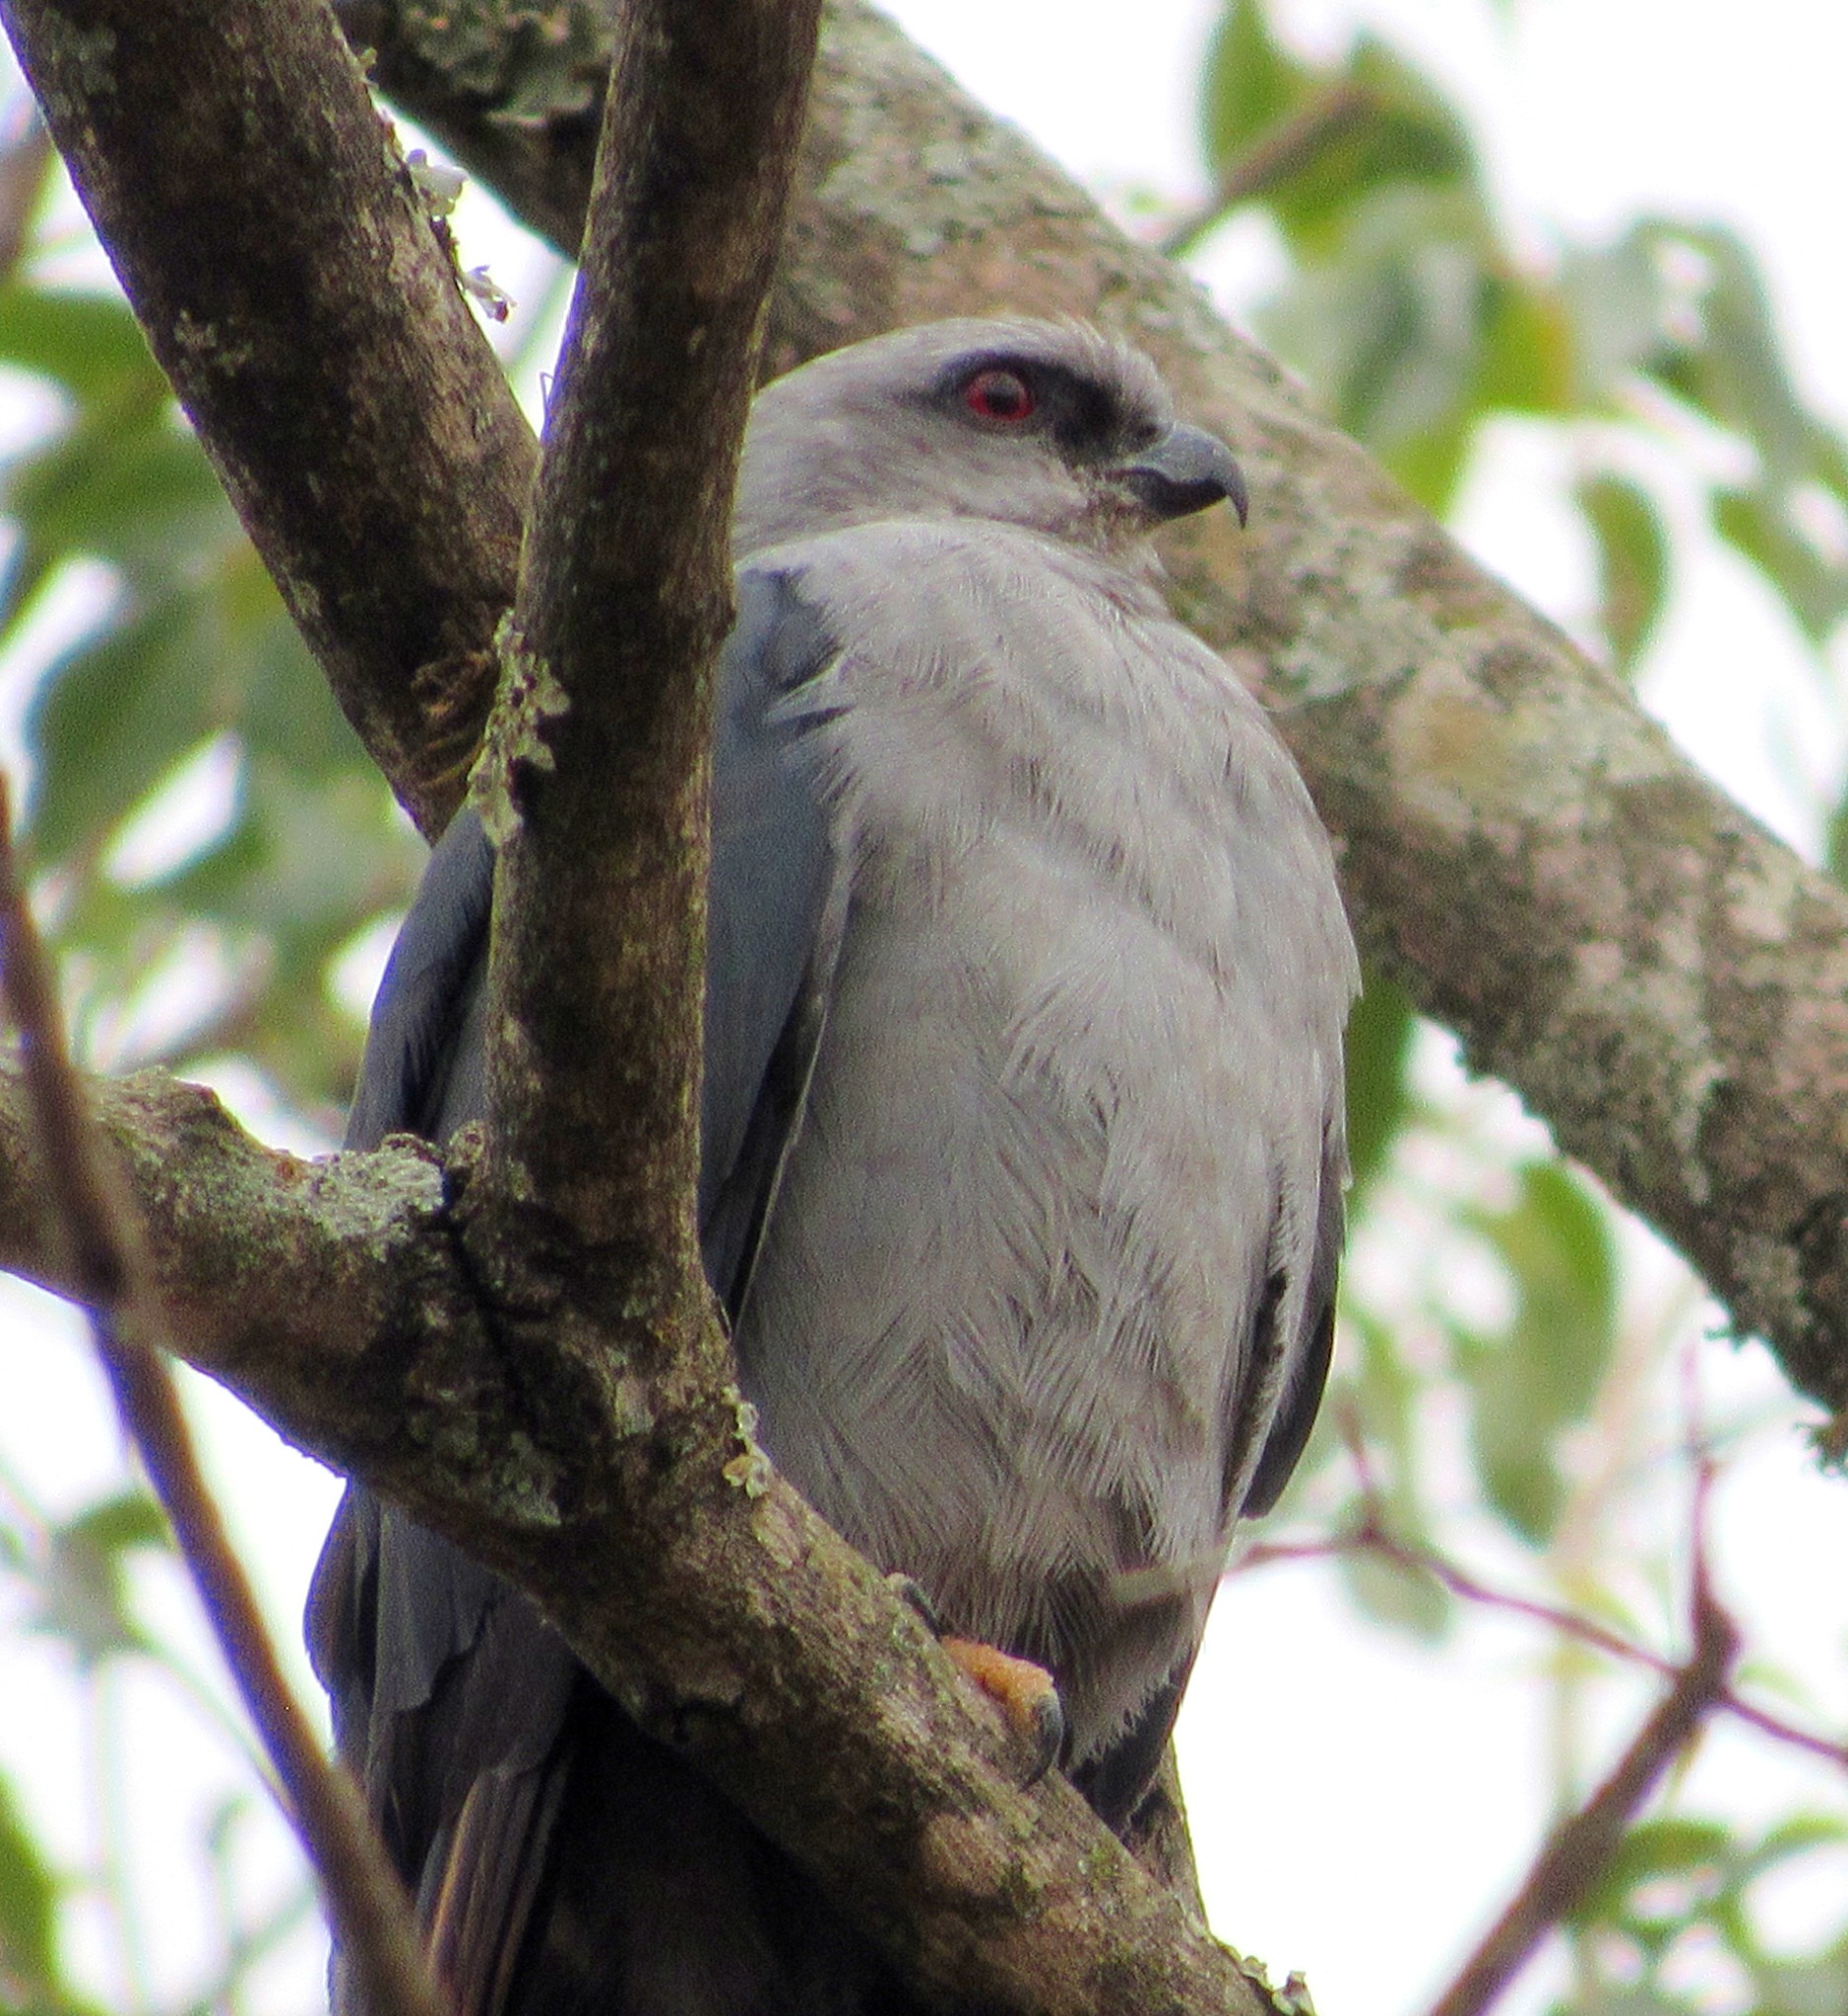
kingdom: Animalia
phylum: Chordata
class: Aves
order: Accipitriformes
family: Accipitridae
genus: Ictinia
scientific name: Ictinia plumbea
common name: Plumbeous kite
